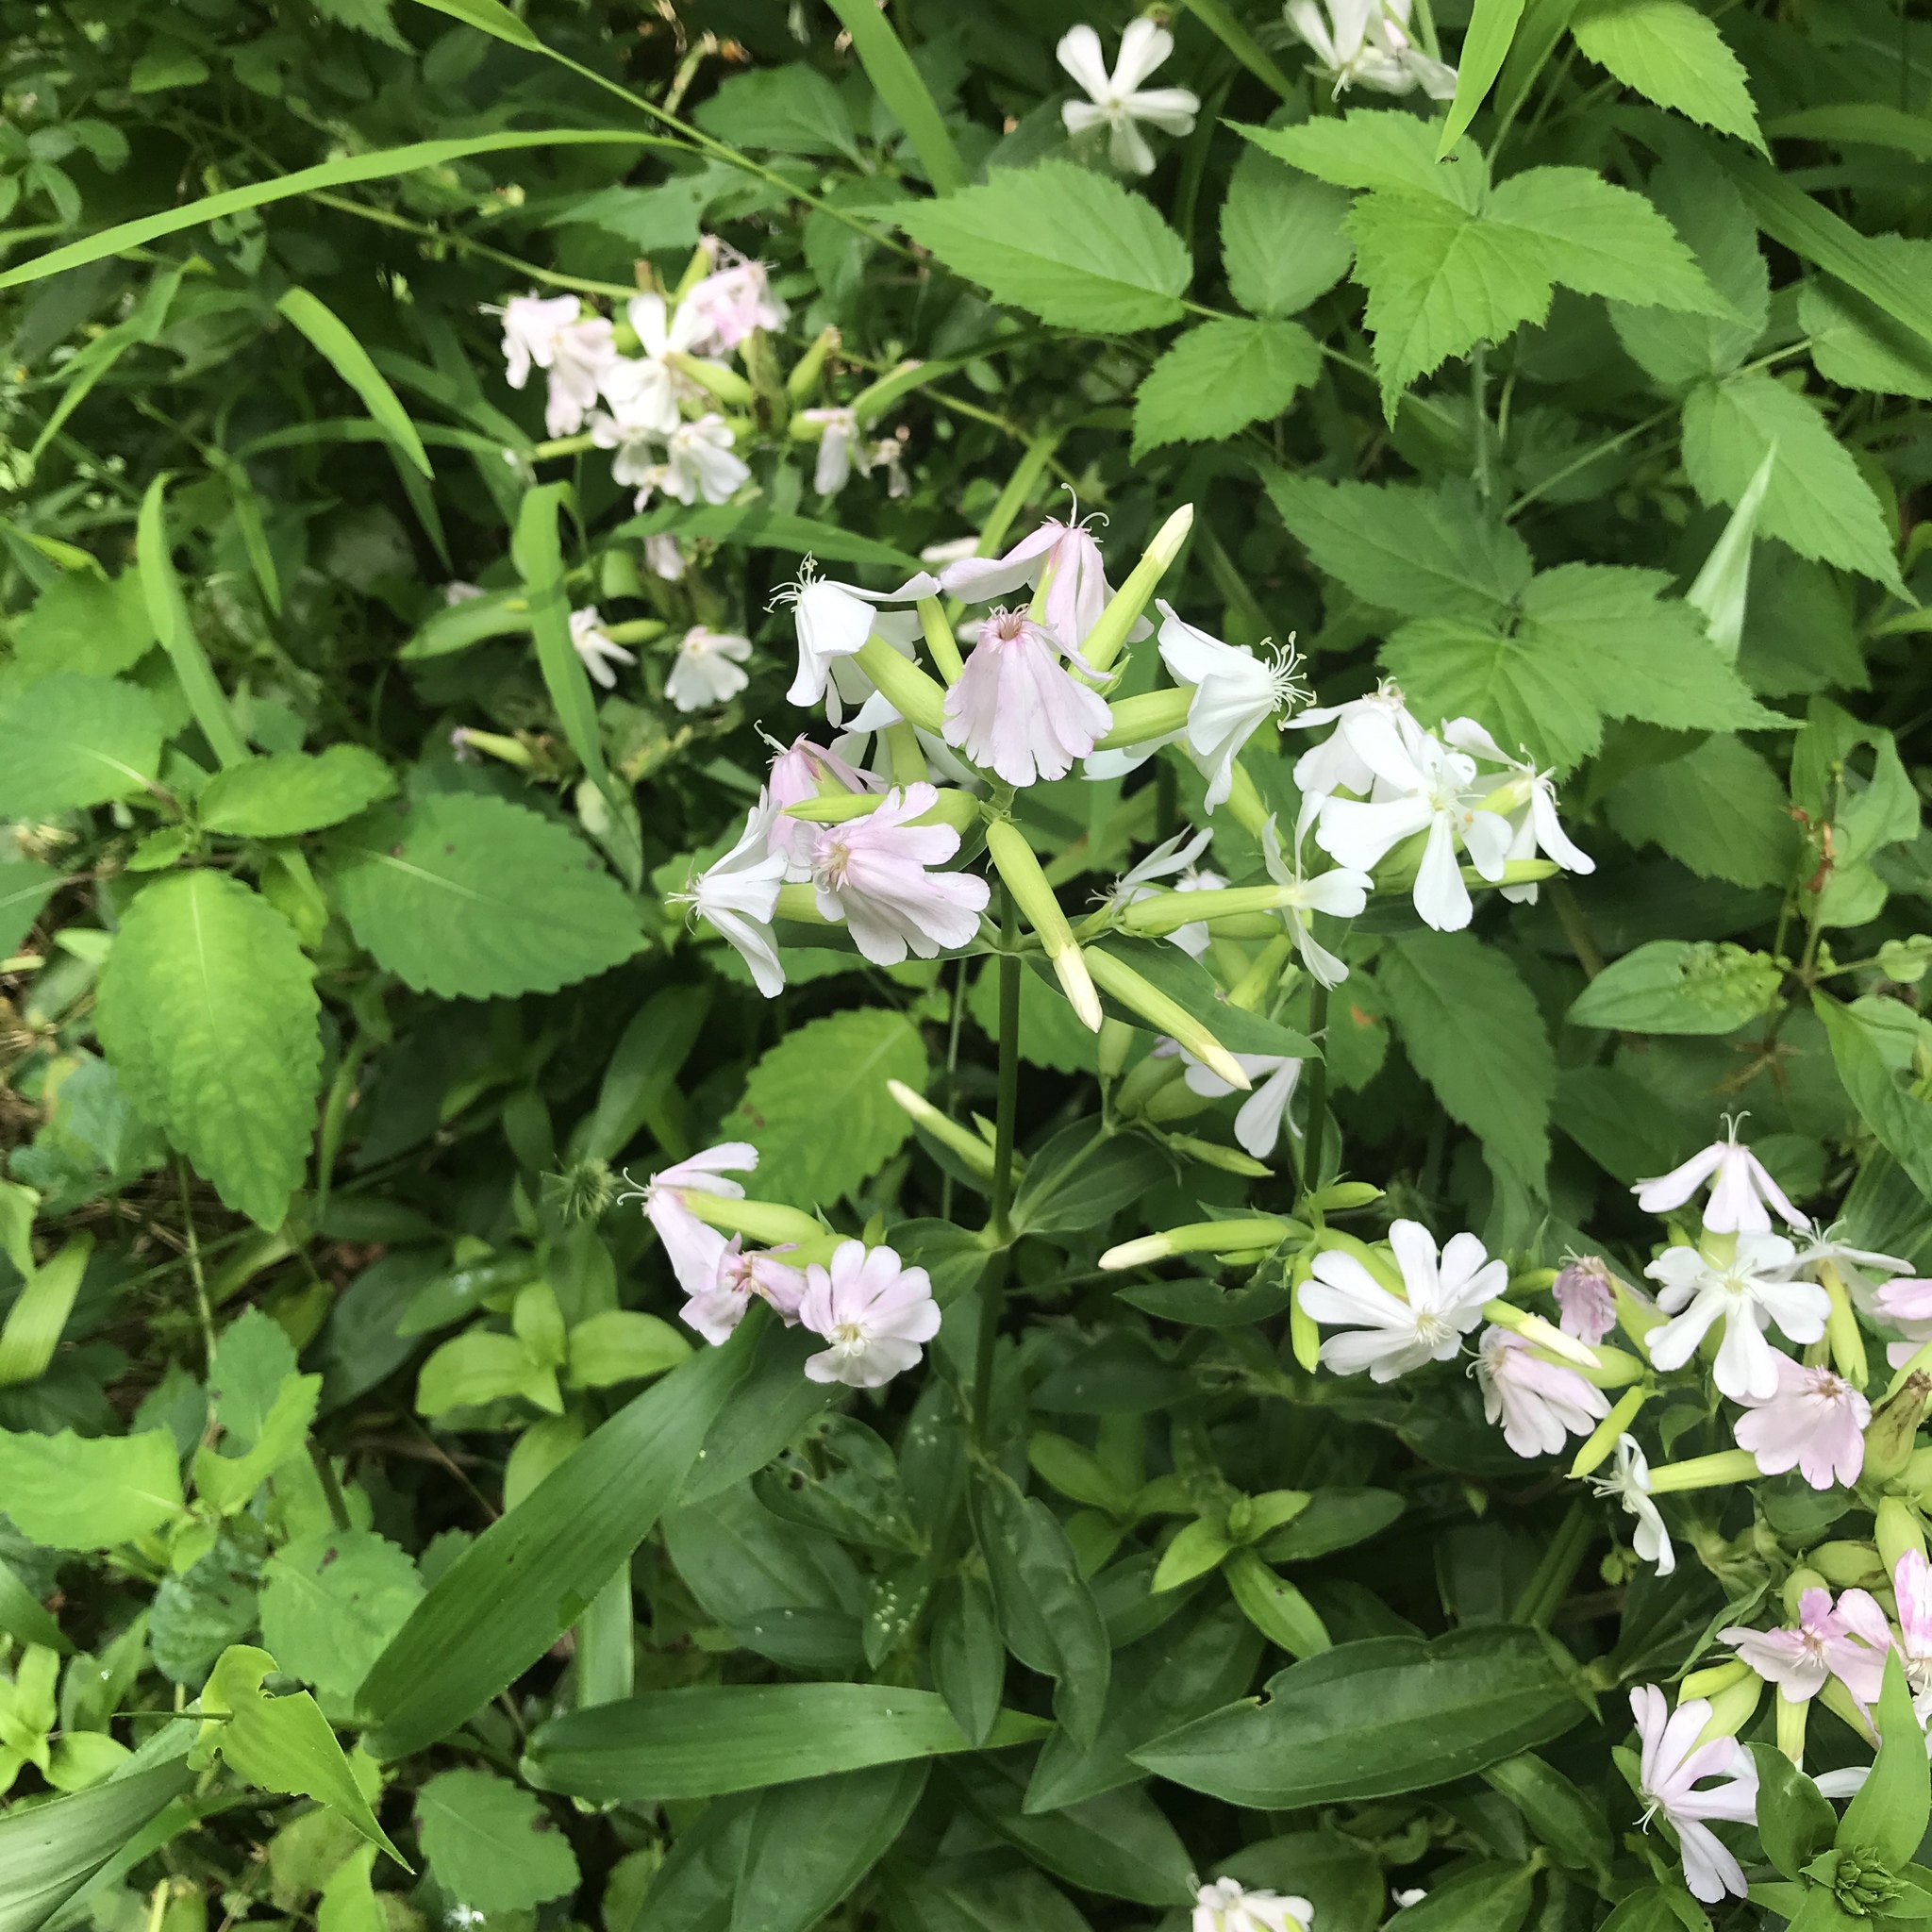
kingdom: Plantae
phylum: Tracheophyta
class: Magnoliopsida
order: Caryophyllales
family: Caryophyllaceae
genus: Saponaria
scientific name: Saponaria officinalis
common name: Soapwort
